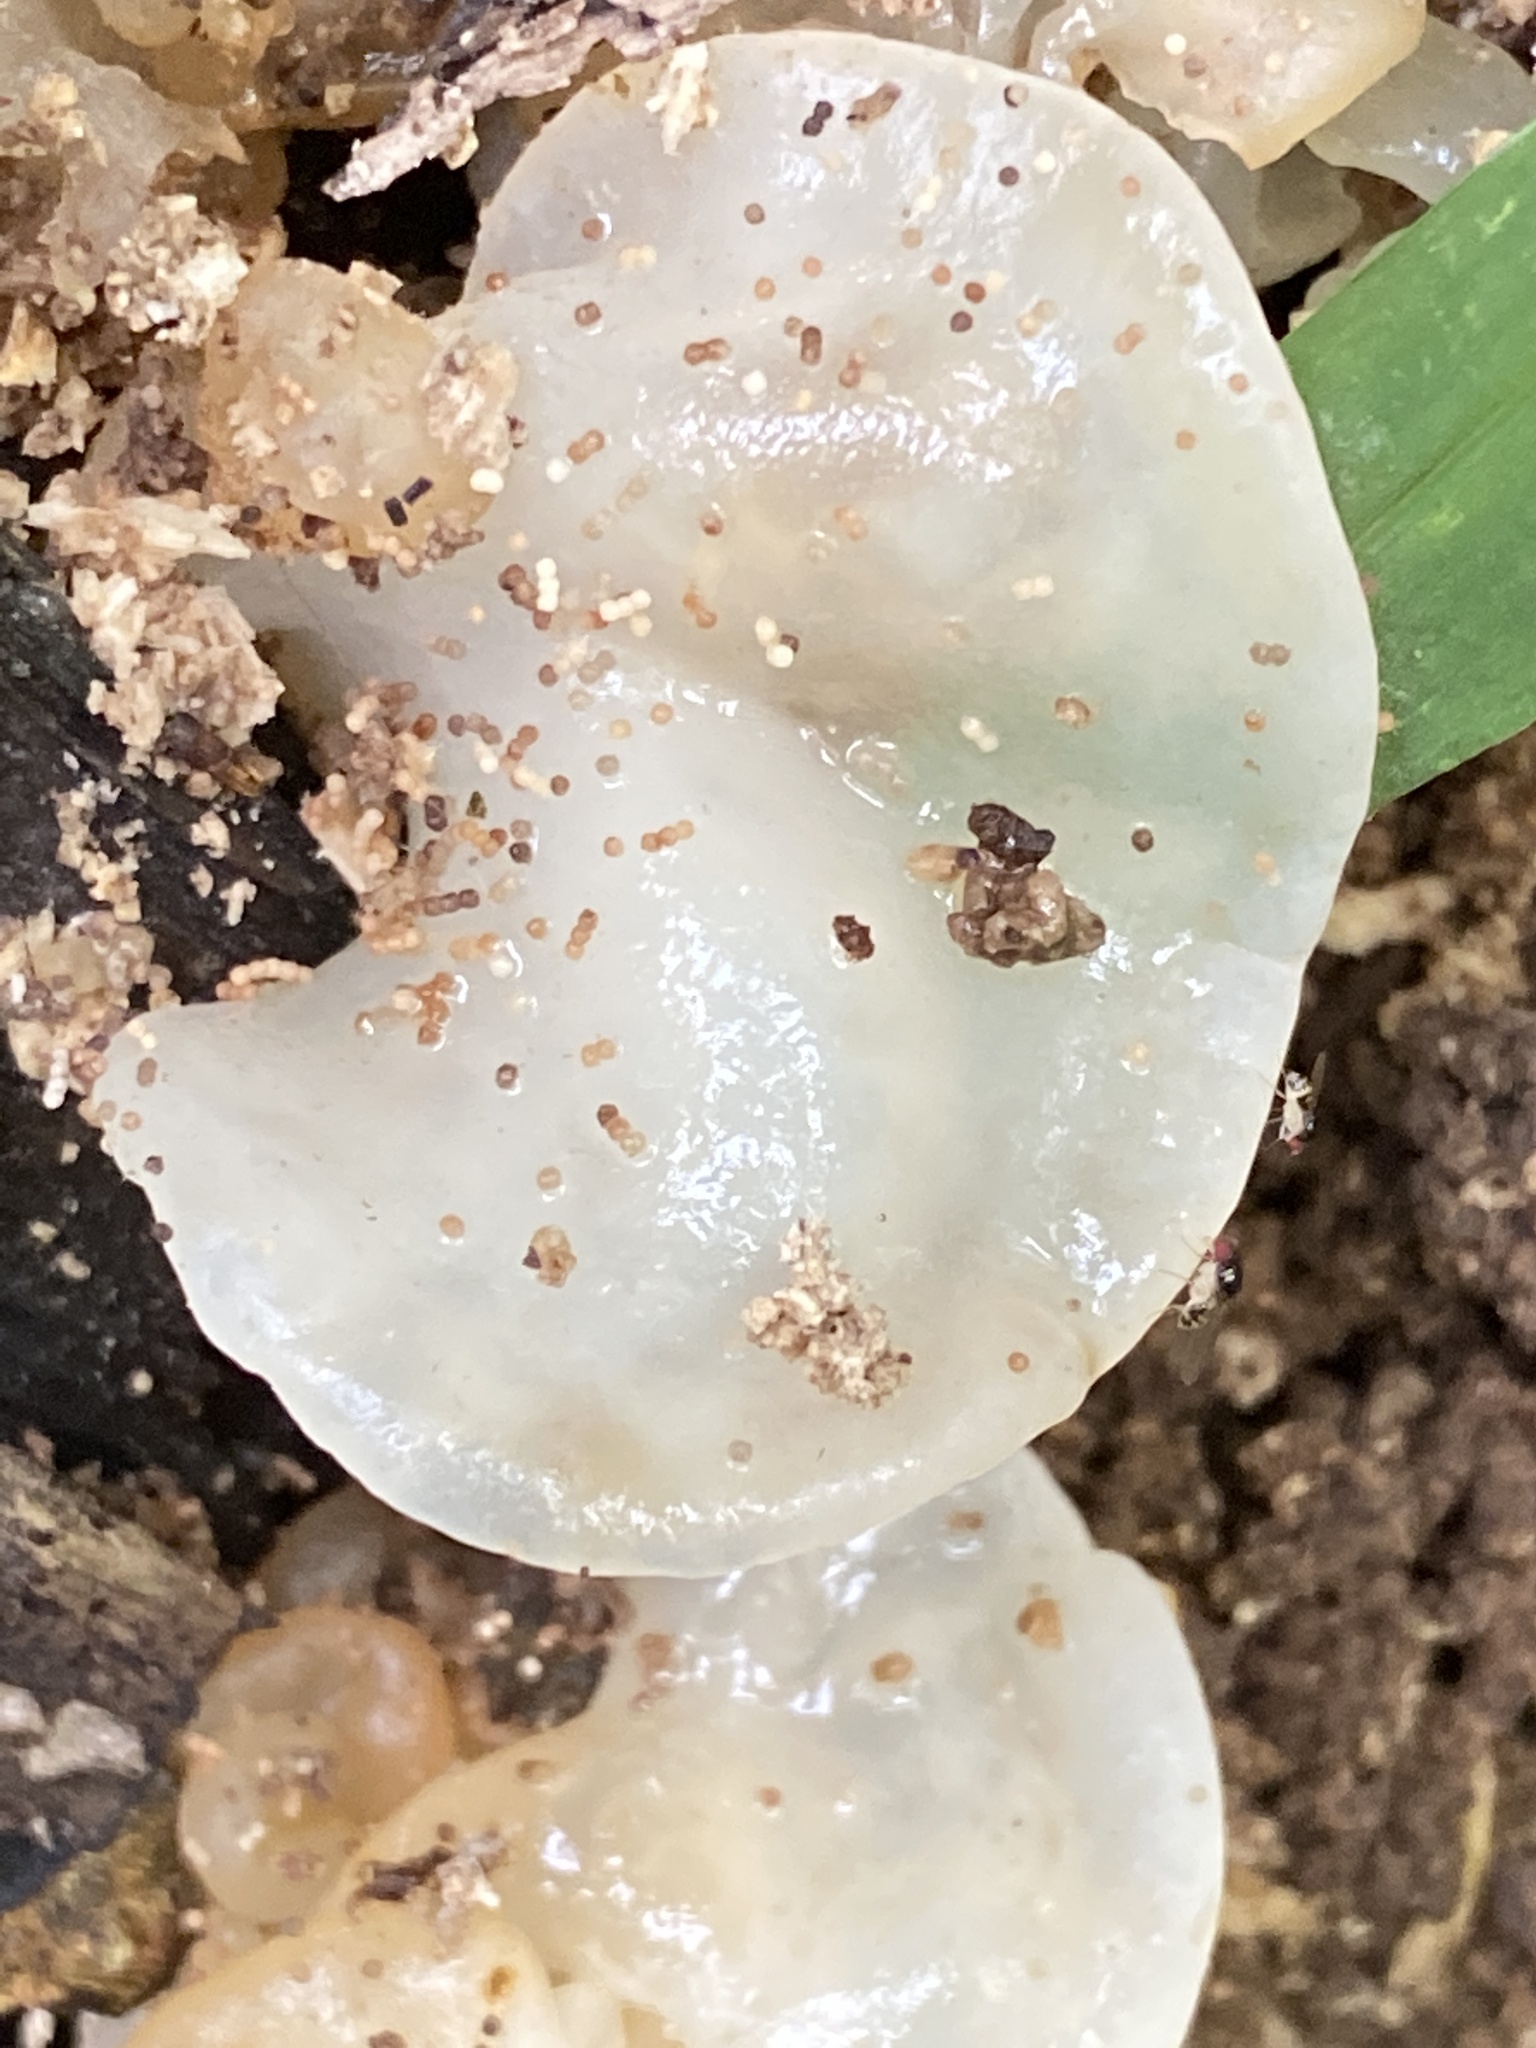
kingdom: Fungi
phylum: Basidiomycota
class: Agaricomycetes
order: Auriculariales
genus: Ductifera
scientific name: Ductifera pululahuana
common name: White jelly fungus
